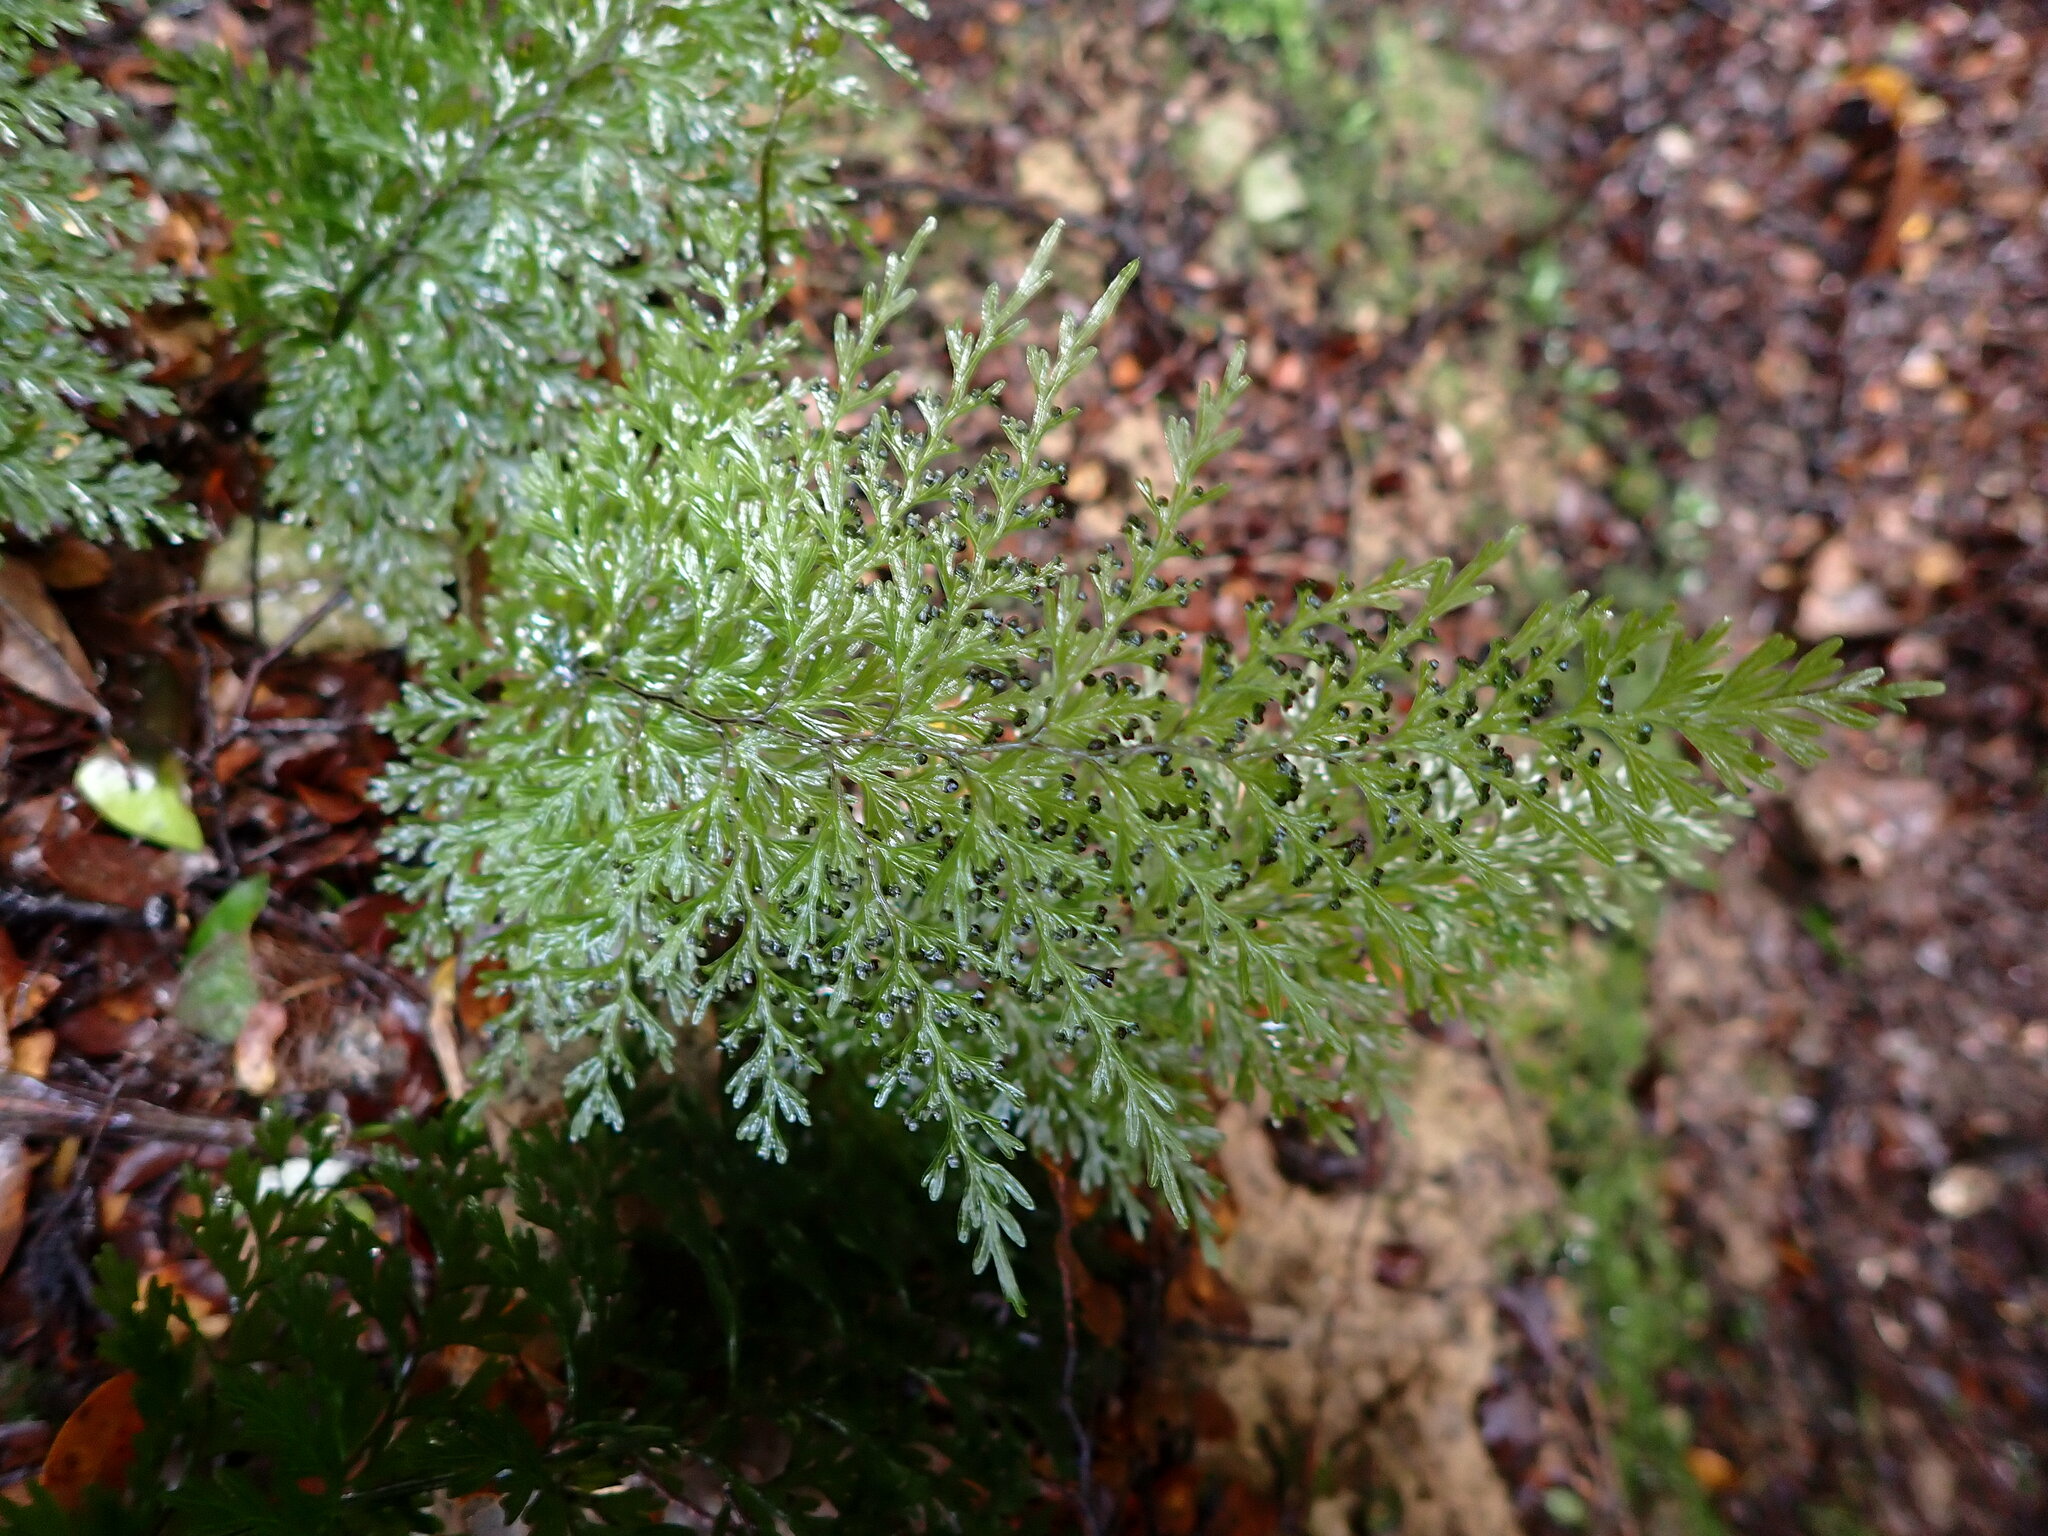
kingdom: Plantae
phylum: Tracheophyta
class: Polypodiopsida
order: Hymenophyllales
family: Hymenophyllaceae
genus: Hymenophyllum
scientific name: Hymenophyllum demissum
